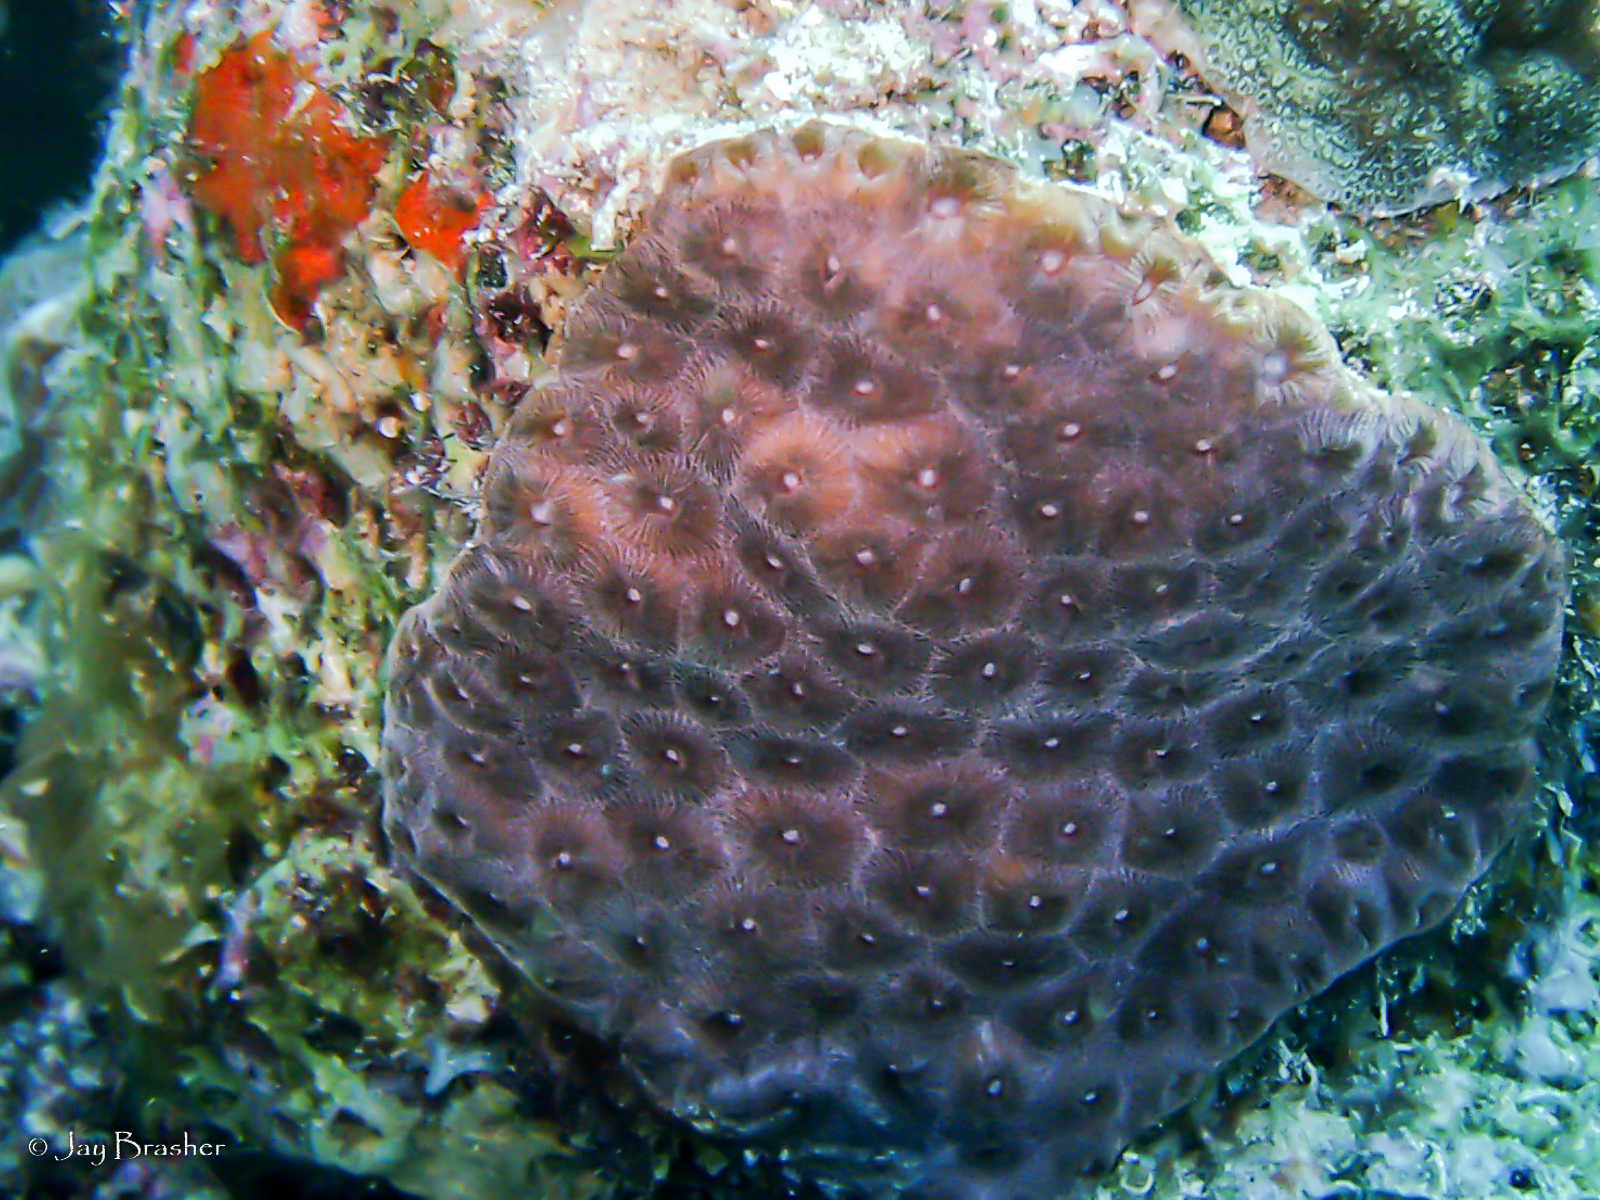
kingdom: Animalia
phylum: Cnidaria
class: Anthozoa
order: Scleractinia
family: Montastraeidae
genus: Montastraea
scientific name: Montastraea cavernosa
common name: Great star coral
